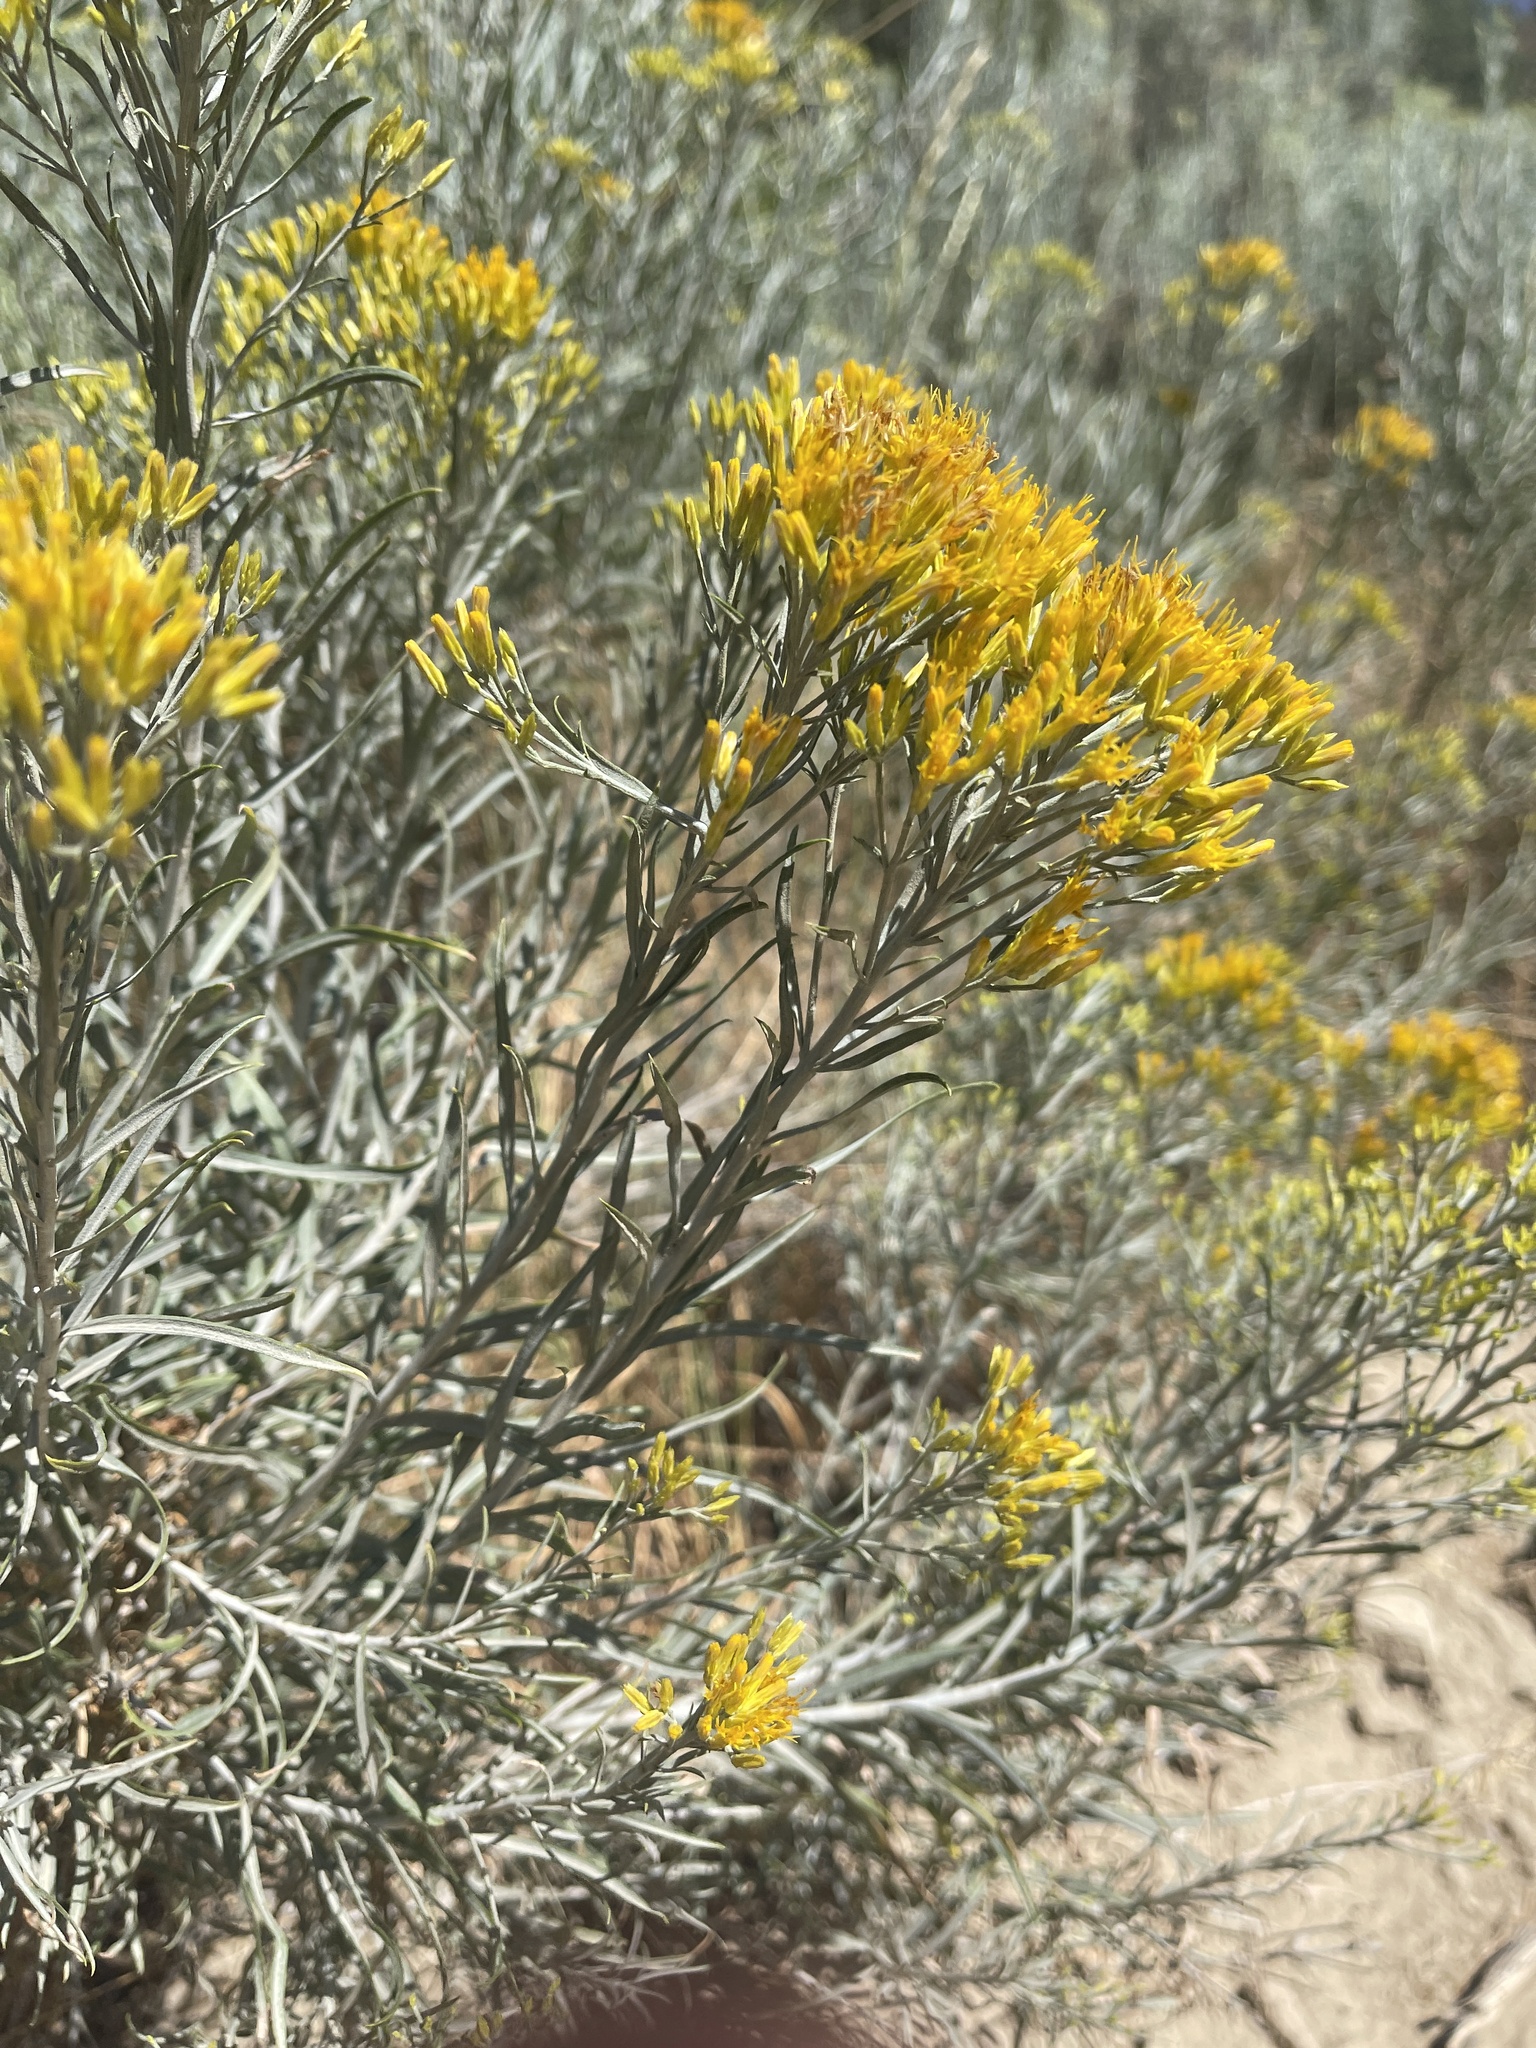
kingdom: Plantae
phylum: Tracheophyta
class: Magnoliopsida
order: Asterales
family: Asteraceae
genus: Ericameria
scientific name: Ericameria nauseosa
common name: Rubber rabbitbrush
